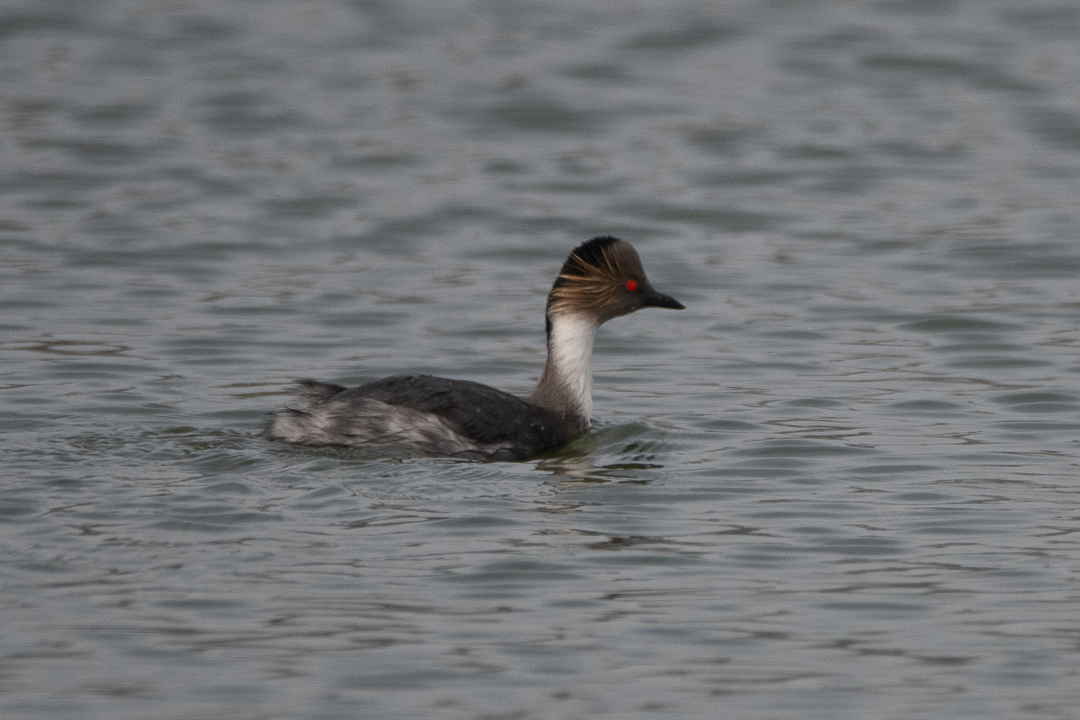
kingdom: Animalia
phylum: Chordata
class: Aves
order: Podicipediformes
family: Podicipedidae
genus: Podiceps
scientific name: Podiceps occipitalis
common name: Silvery grebe
